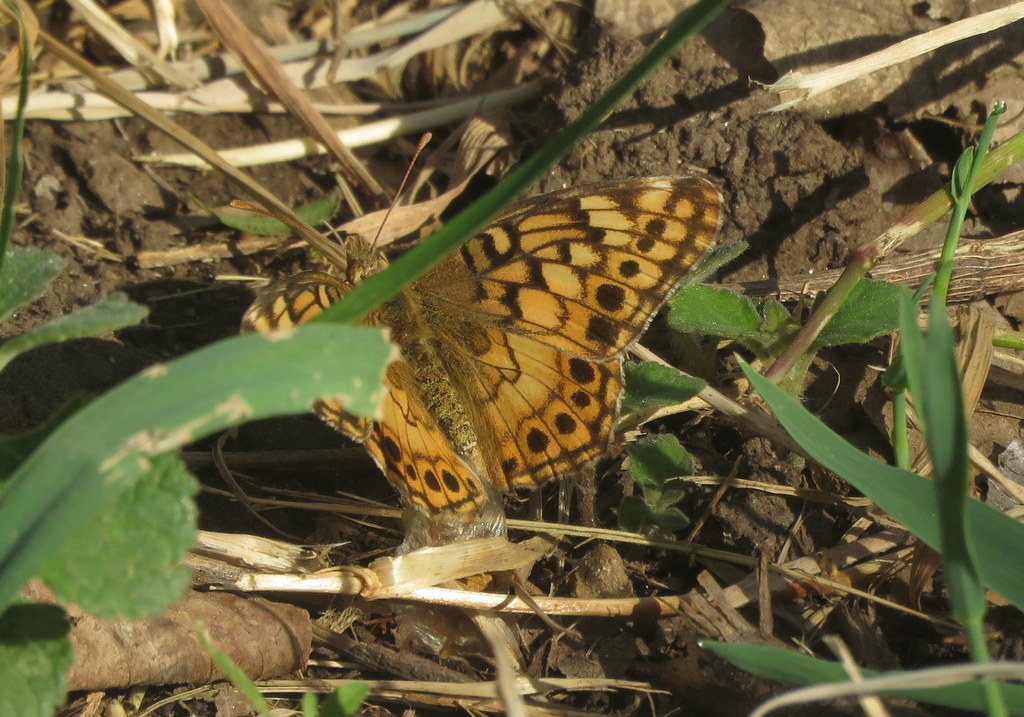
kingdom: Animalia
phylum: Arthropoda
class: Insecta
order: Lepidoptera
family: Nymphalidae
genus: Euptoieta
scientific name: Euptoieta hortensia
